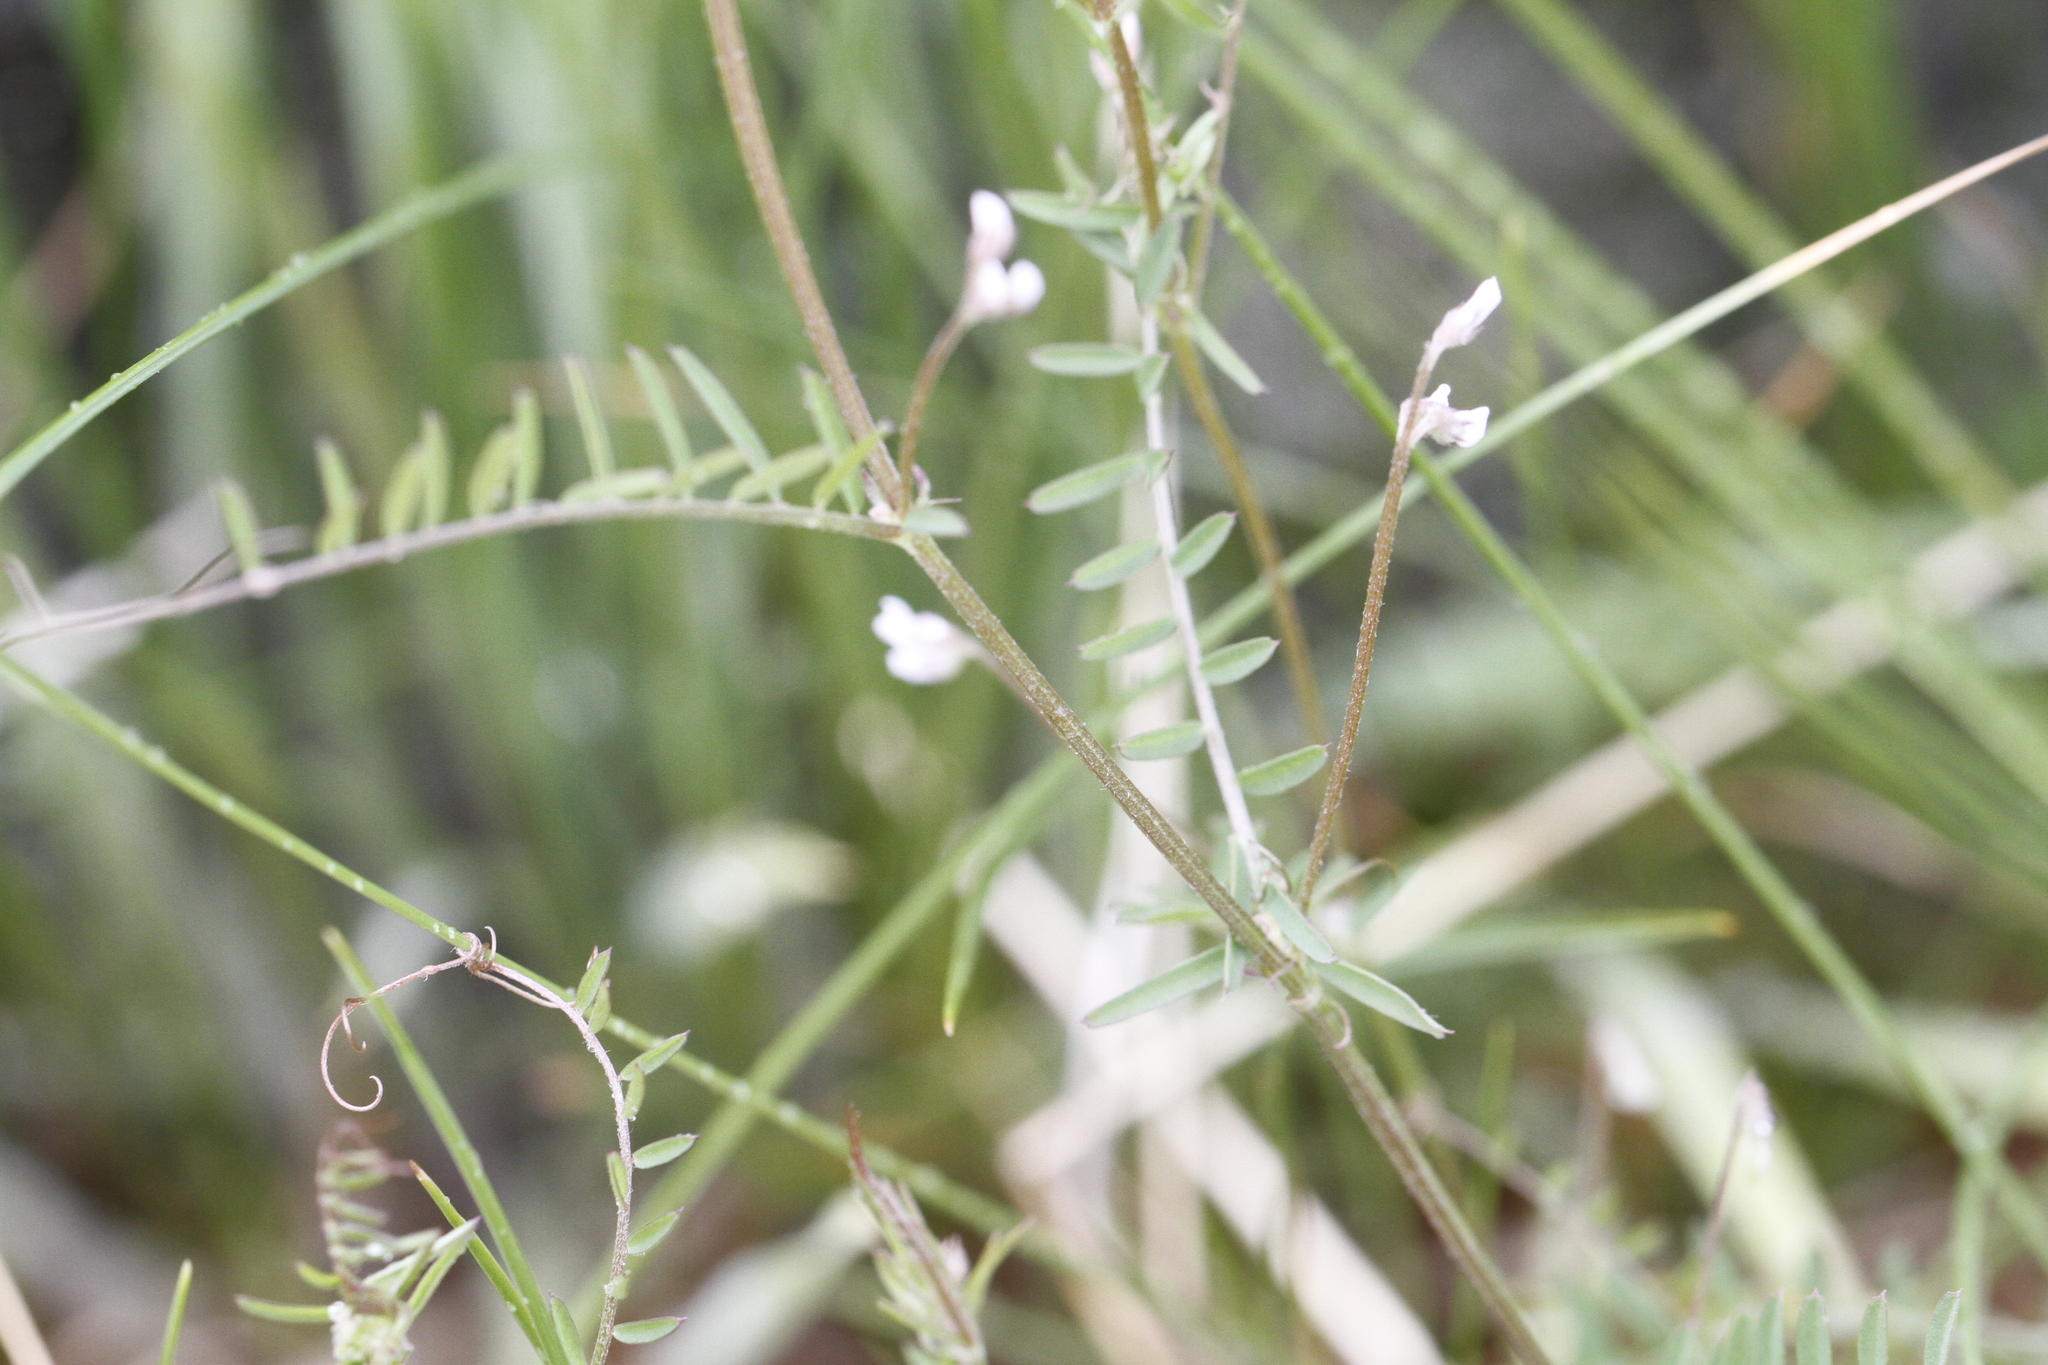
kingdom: Plantae
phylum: Tracheophyta
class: Magnoliopsida
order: Fabales
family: Fabaceae
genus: Vicia
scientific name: Vicia hirsuta
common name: Tiny vetch
